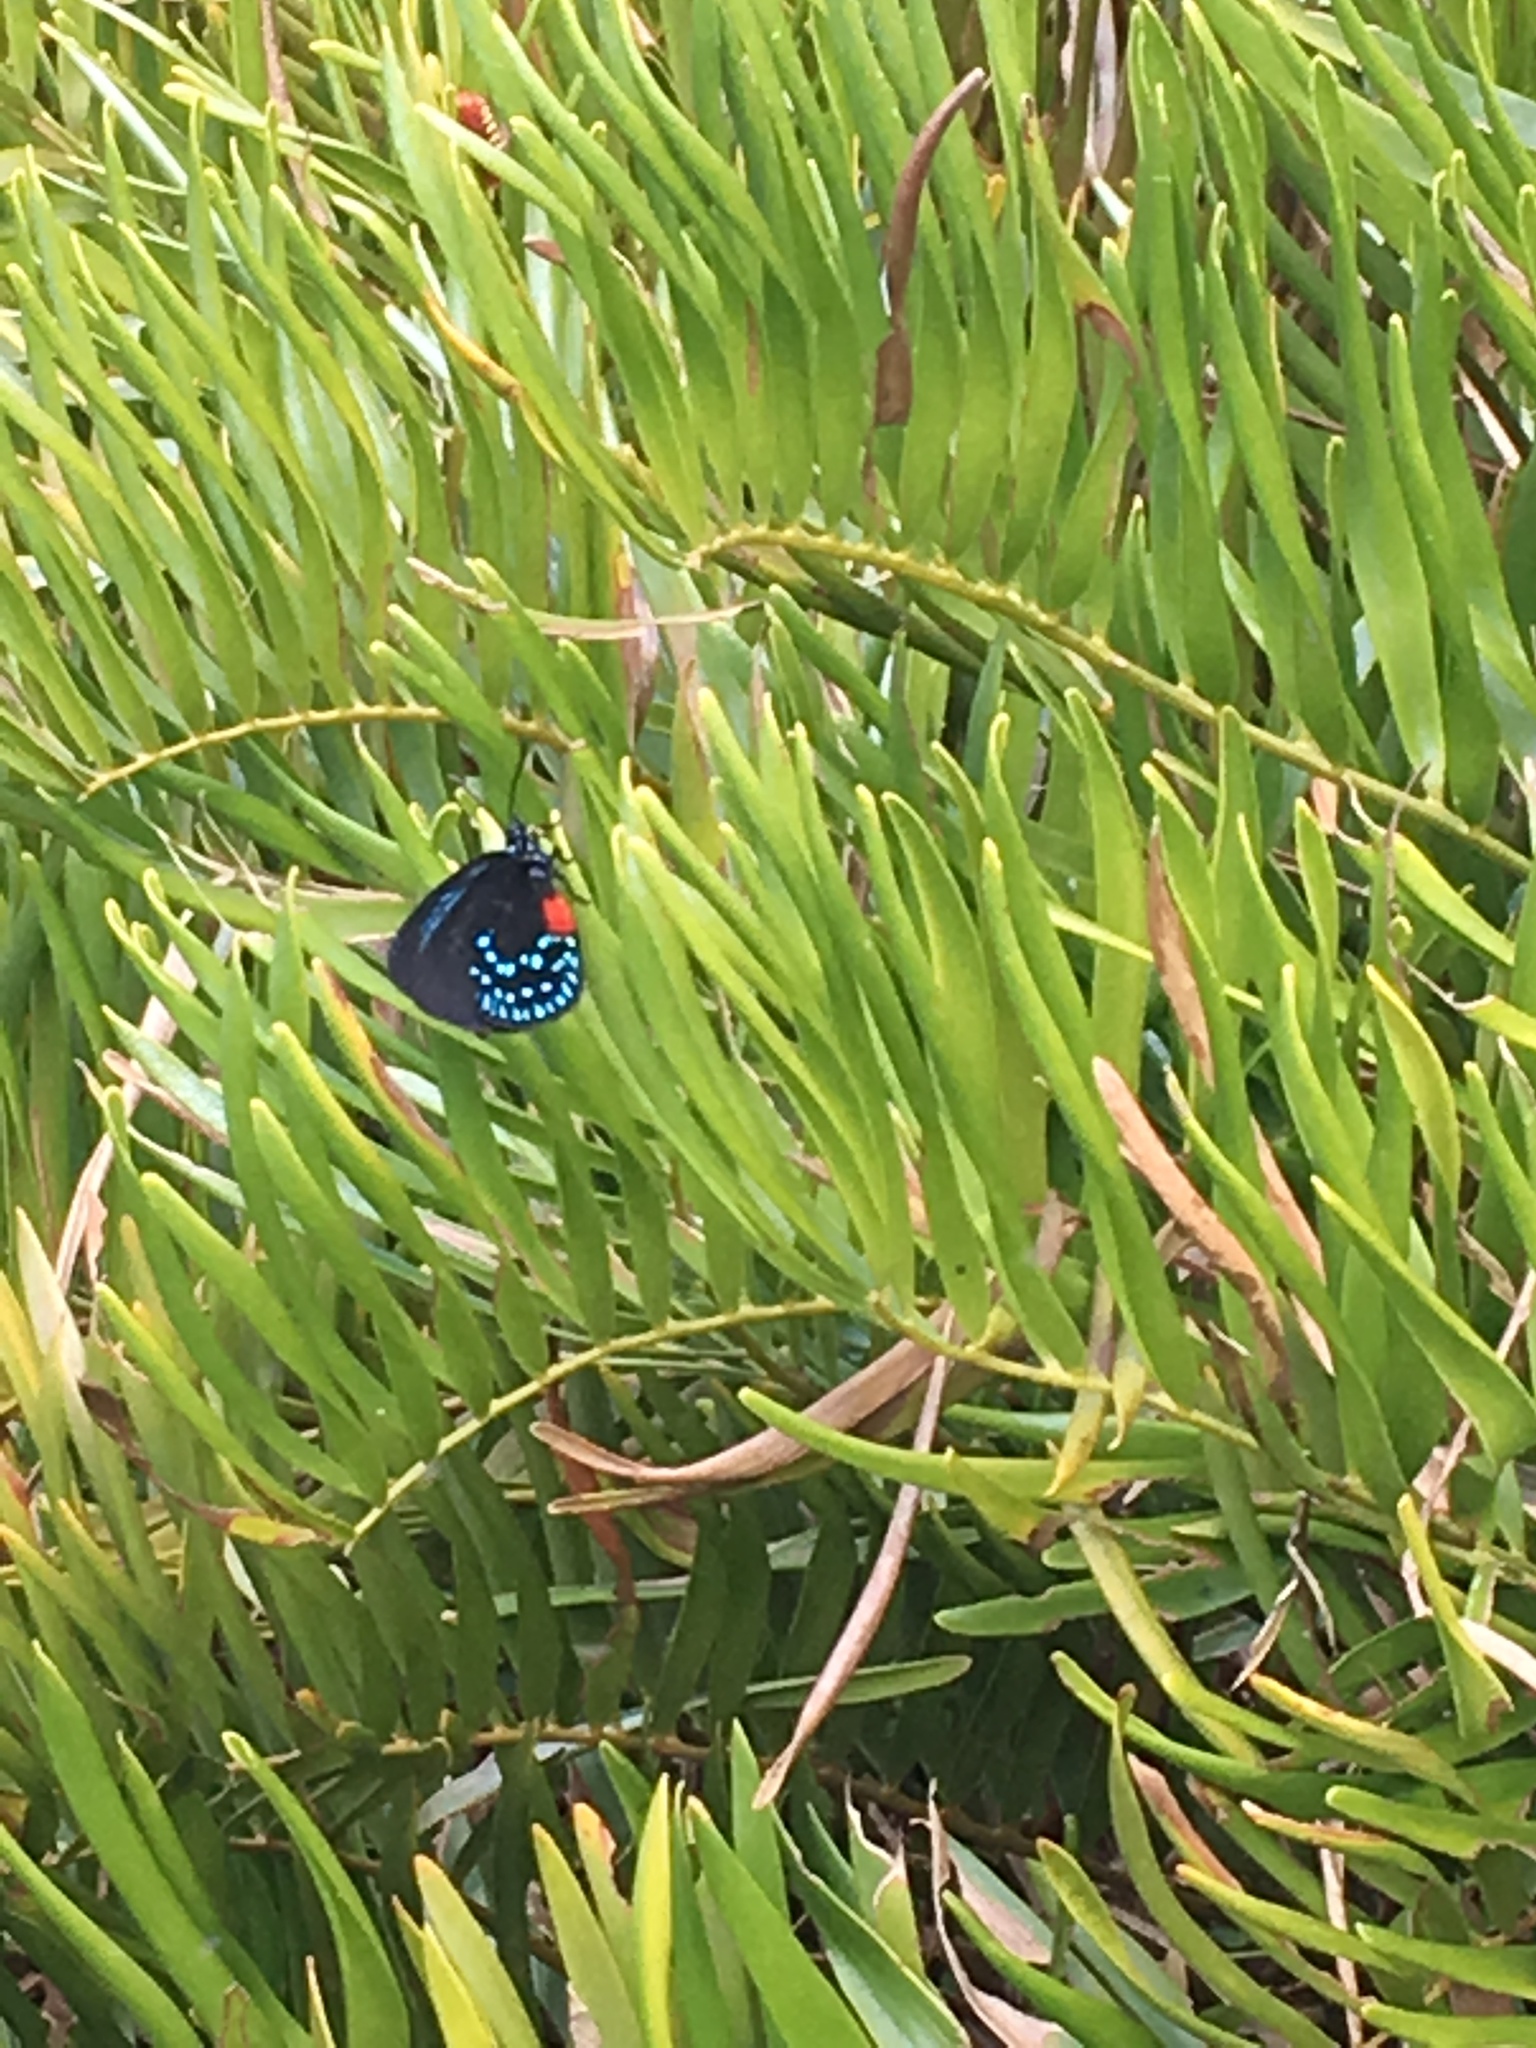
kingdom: Animalia
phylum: Arthropoda
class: Insecta
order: Lepidoptera
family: Lycaenidae
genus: Eumaeus
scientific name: Eumaeus atala
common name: Atala
